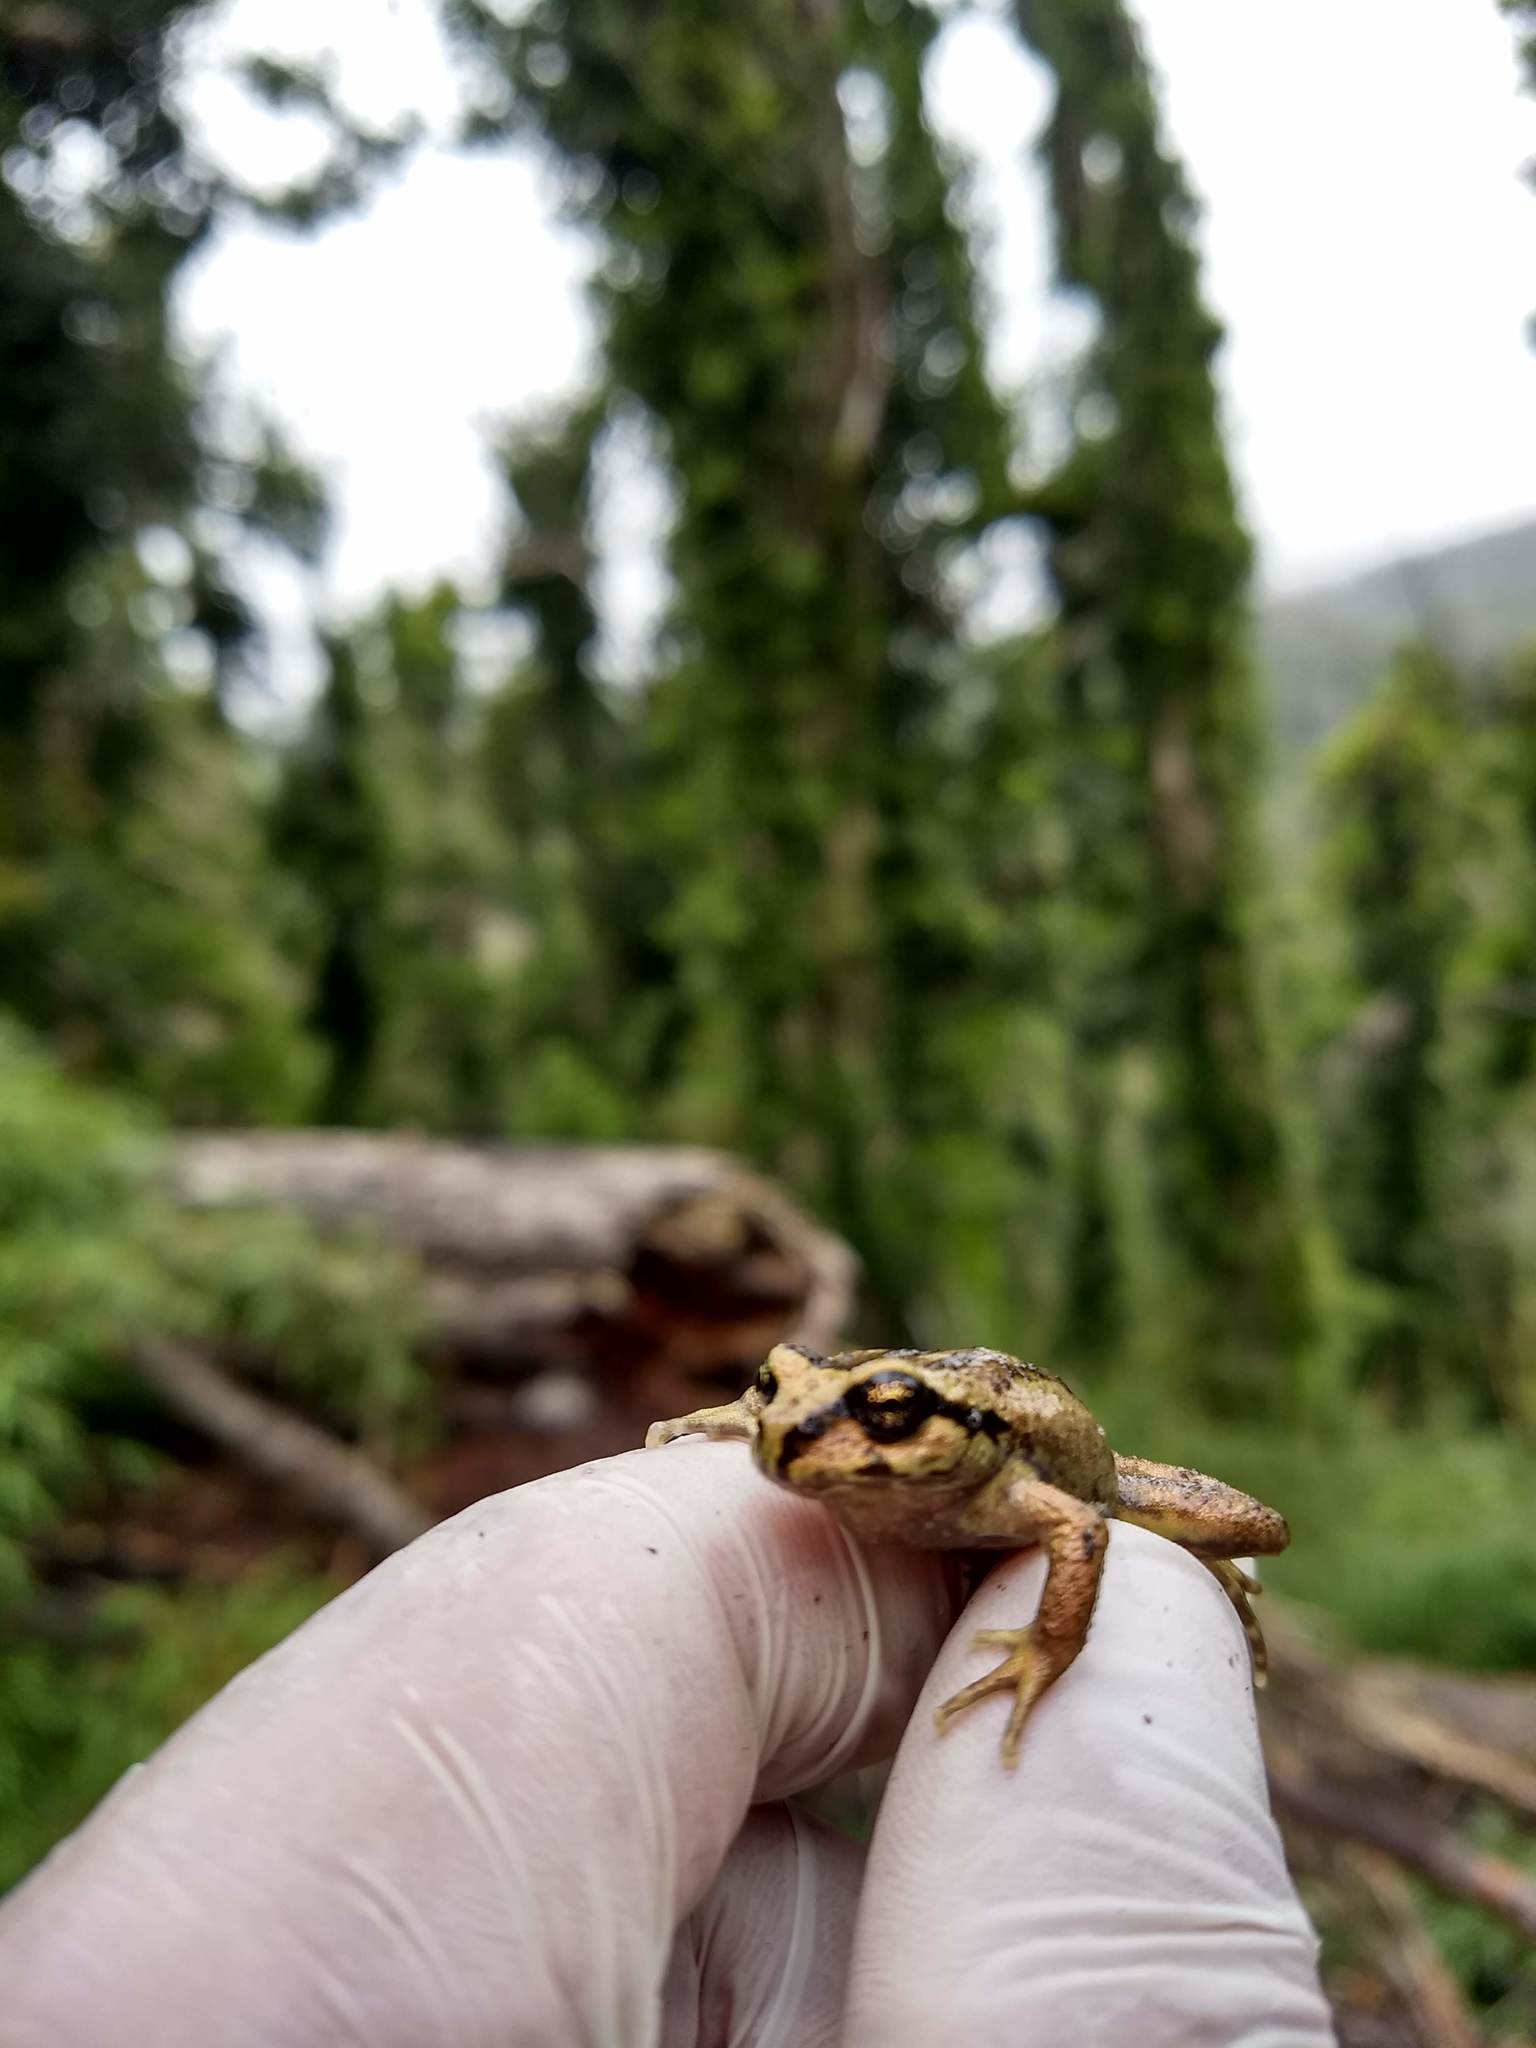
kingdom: Animalia
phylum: Chordata
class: Amphibia
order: Anura
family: Alsodidae
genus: Alsodes
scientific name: Alsodes verrucosus
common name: Olive spiny-chest frog
